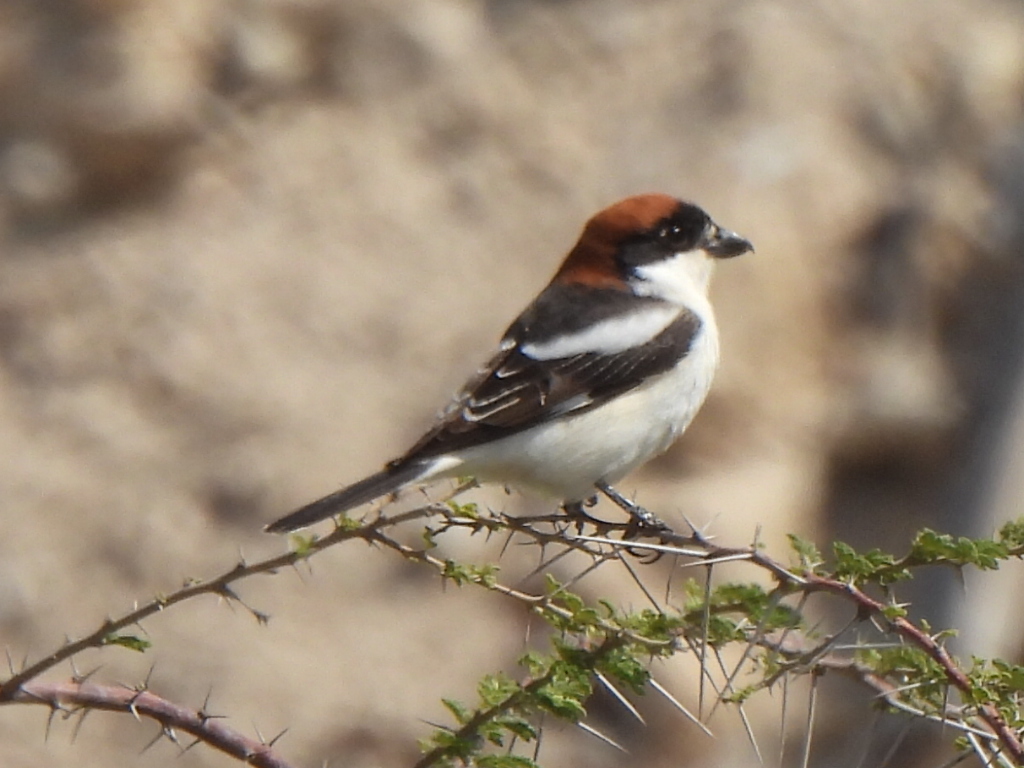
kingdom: Animalia
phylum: Chordata
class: Aves
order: Passeriformes
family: Laniidae
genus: Lanius
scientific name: Lanius senator
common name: Woodchat shrike
